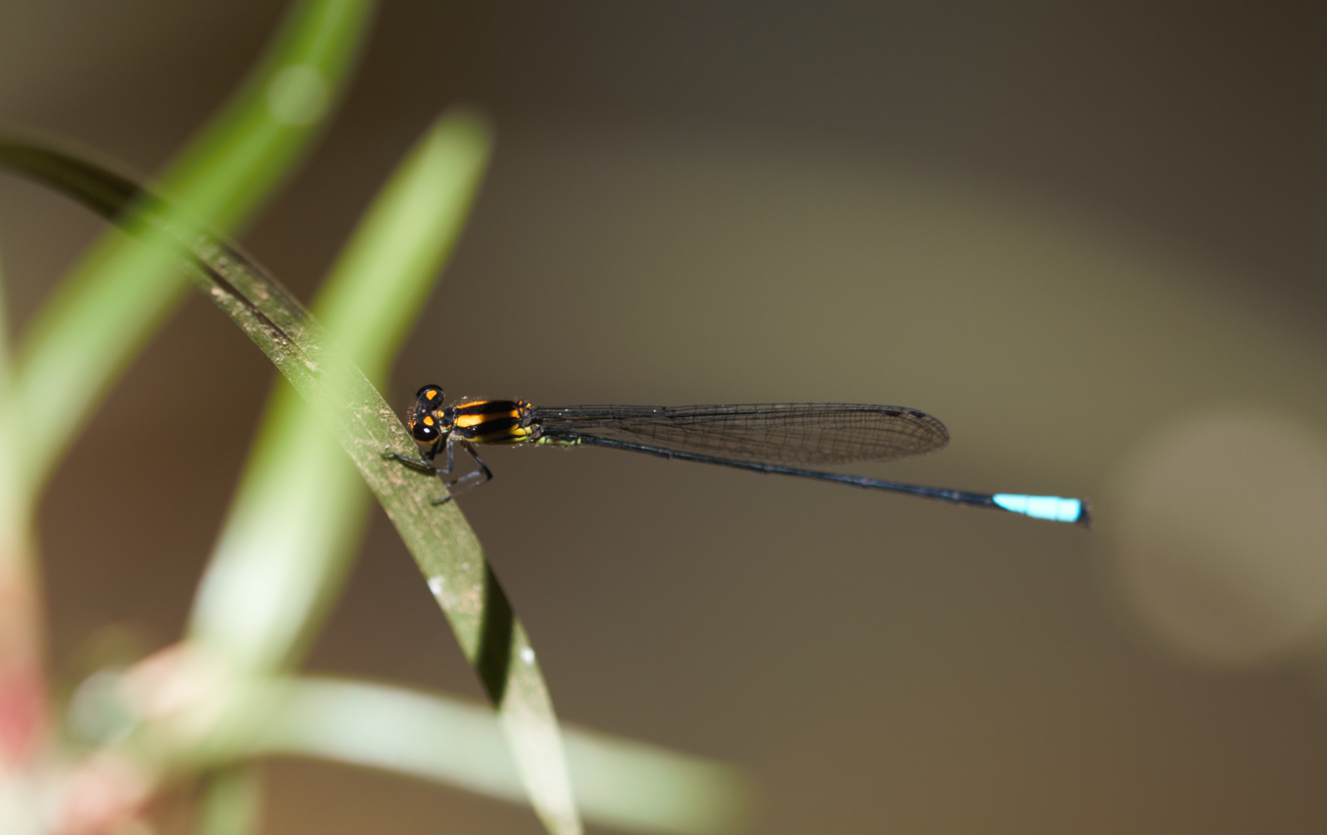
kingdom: Animalia
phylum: Arthropoda
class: Insecta
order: Odonata
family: Coenagrionidae
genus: Acanthagrion
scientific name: Acanthagrion apicale
